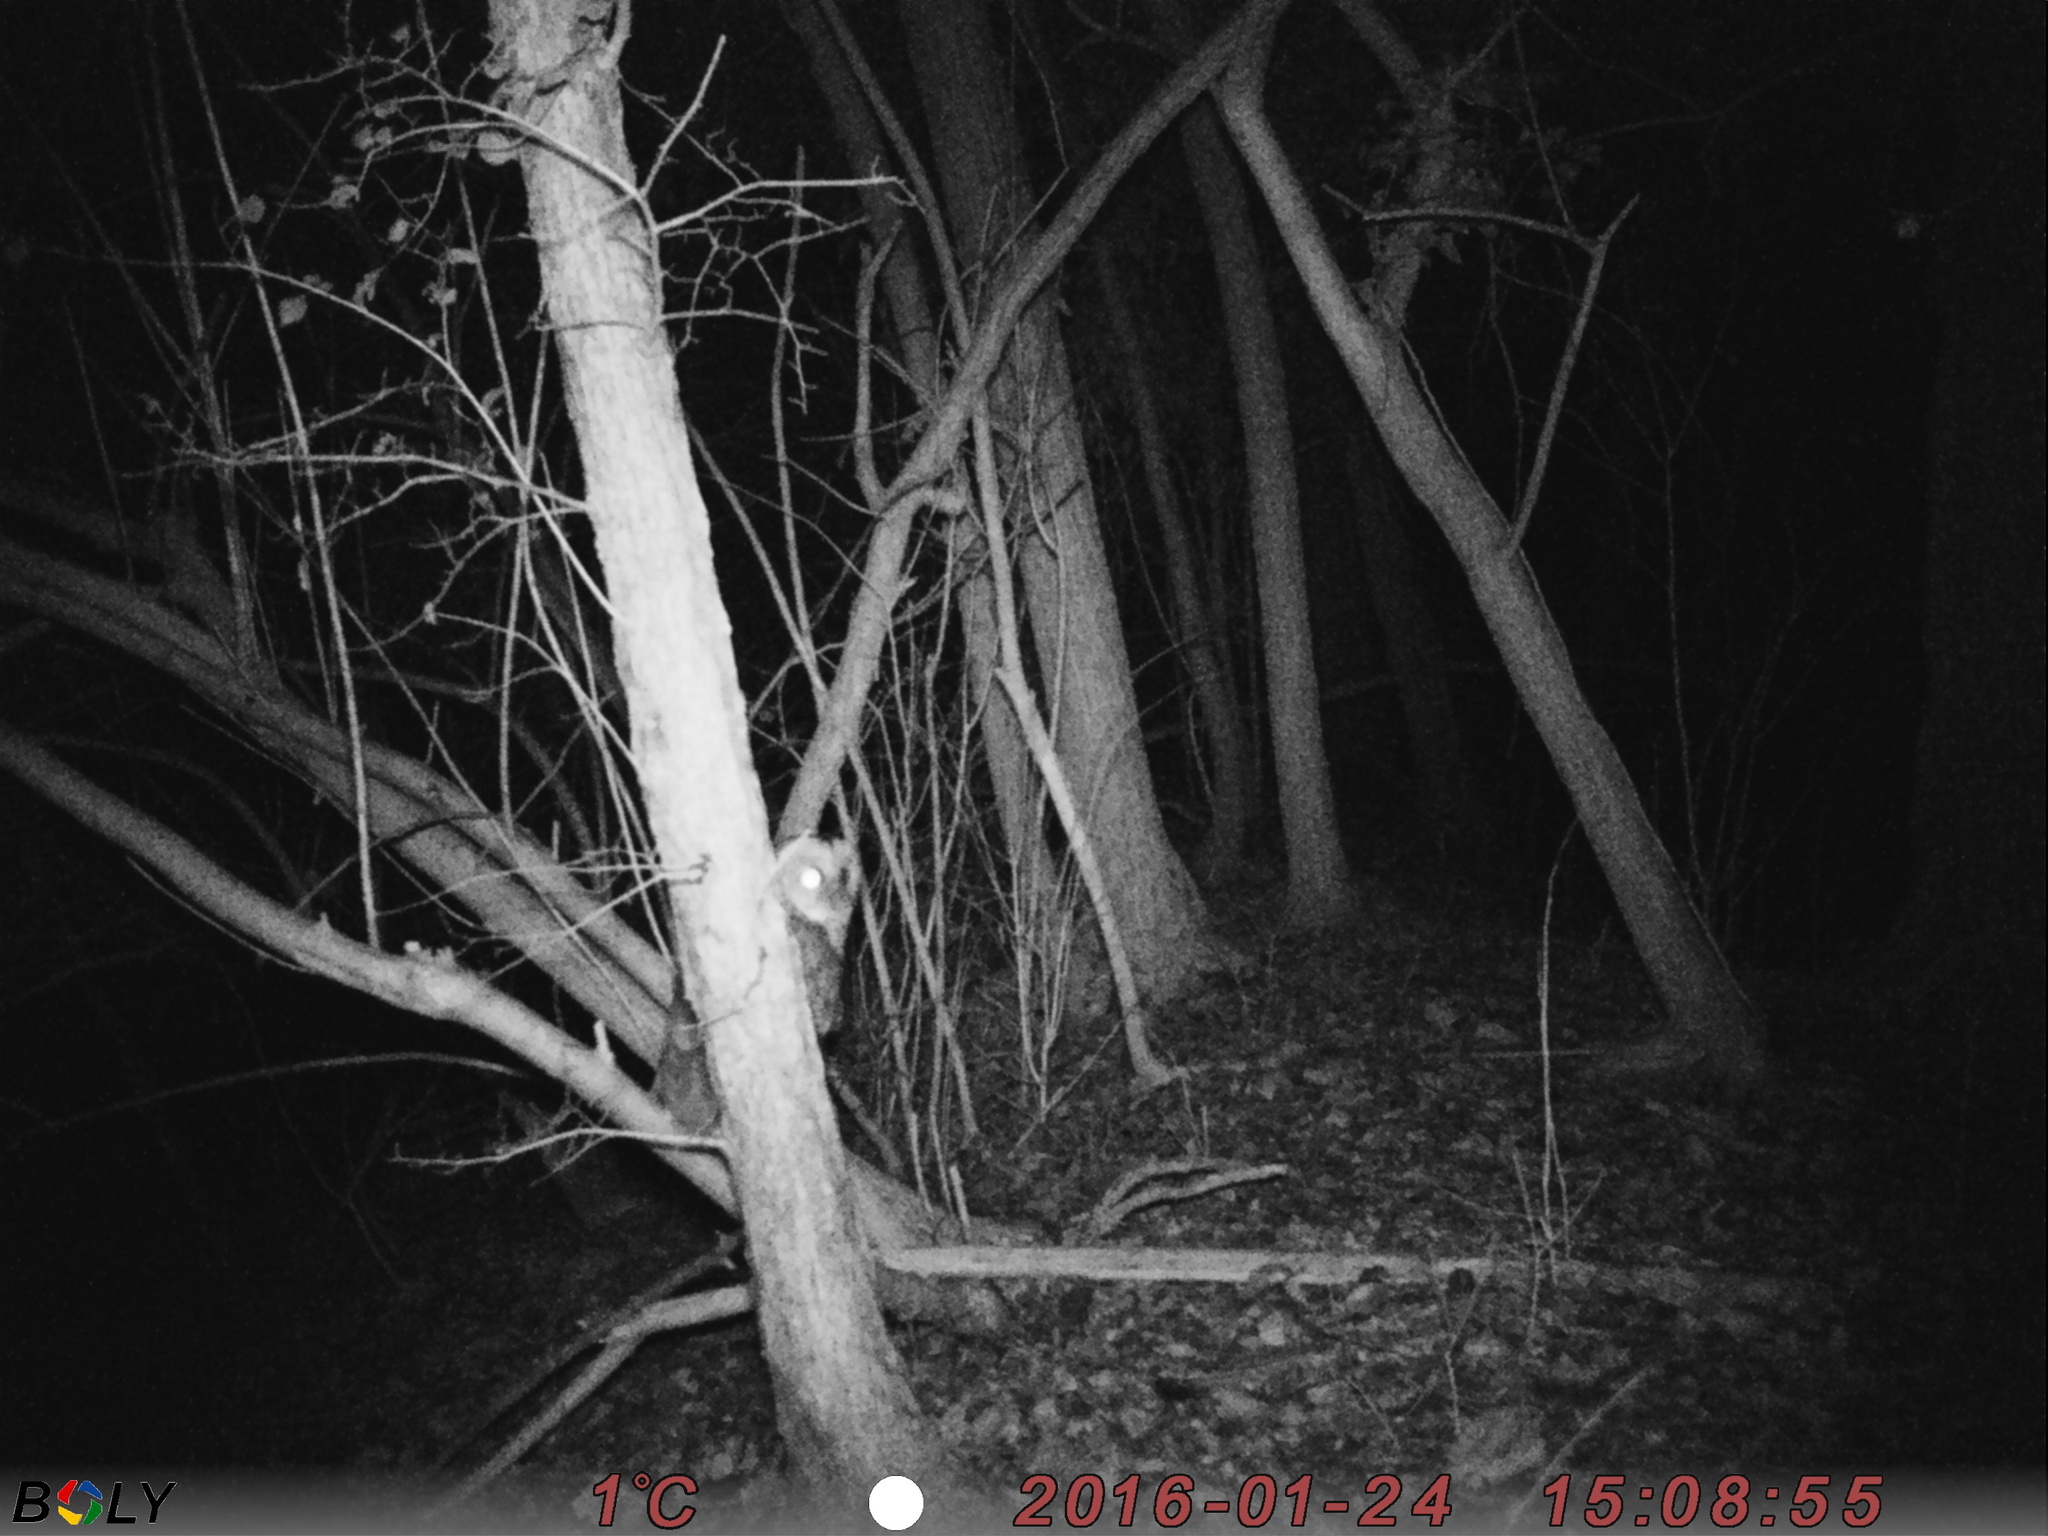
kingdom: Animalia
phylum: Chordata
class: Aves
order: Strigiformes
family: Strigidae
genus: Strix
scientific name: Strix aluco
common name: Tawny owl
